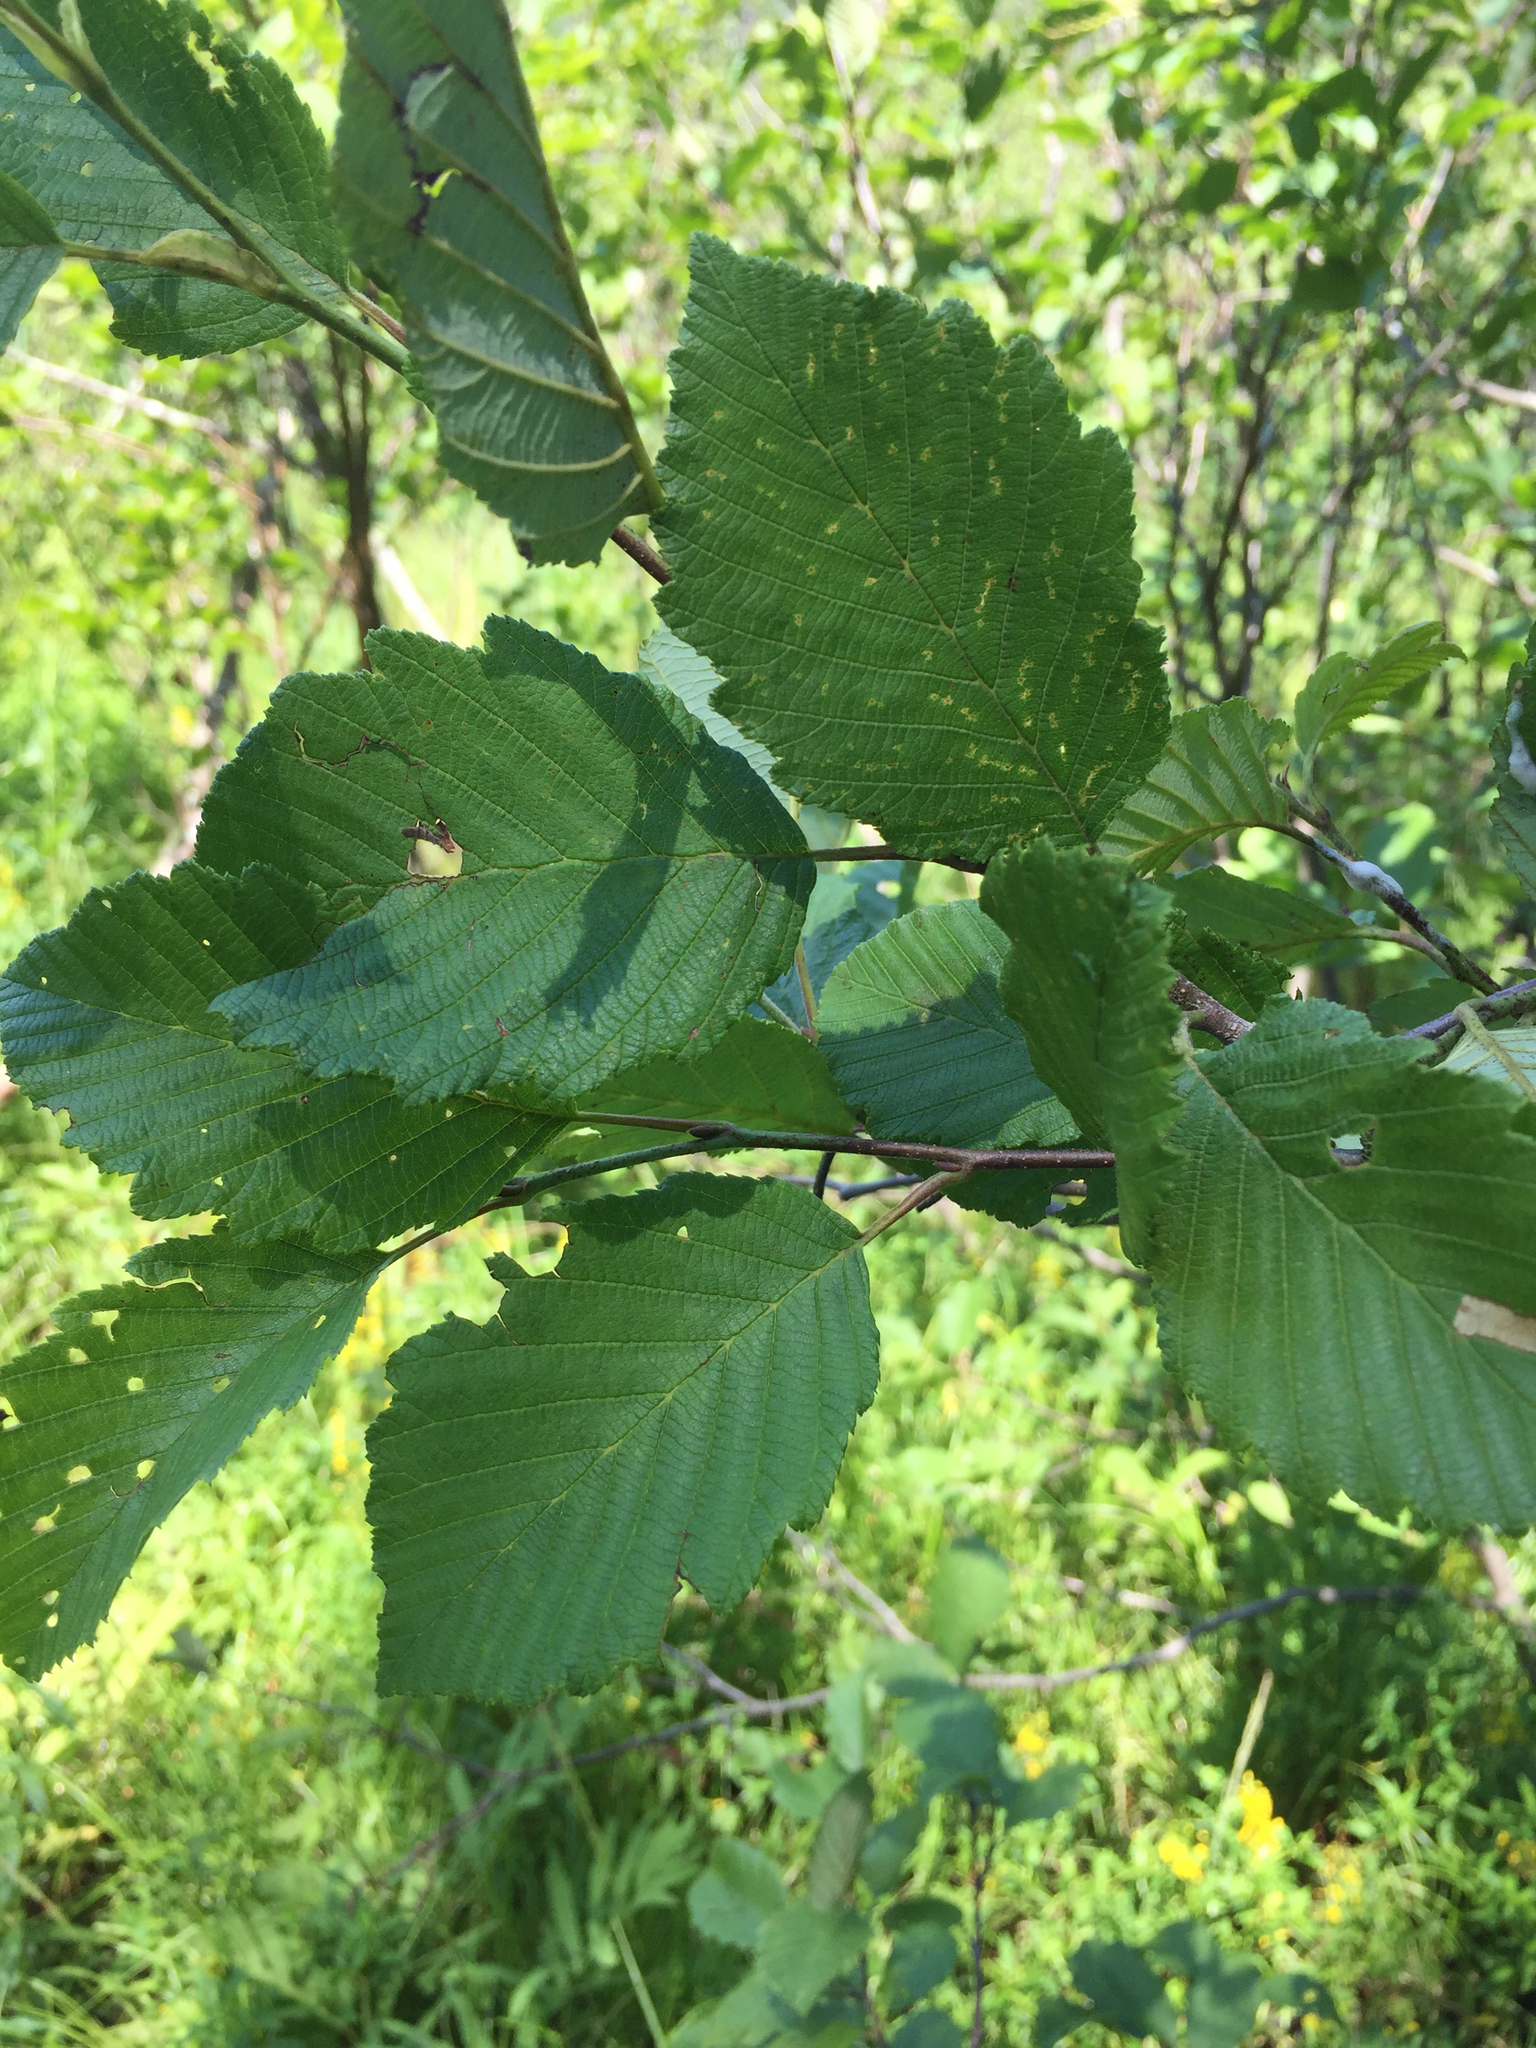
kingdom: Plantae
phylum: Tracheophyta
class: Magnoliopsida
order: Fagales
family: Betulaceae
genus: Alnus
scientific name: Alnus incana
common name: Grey alder
